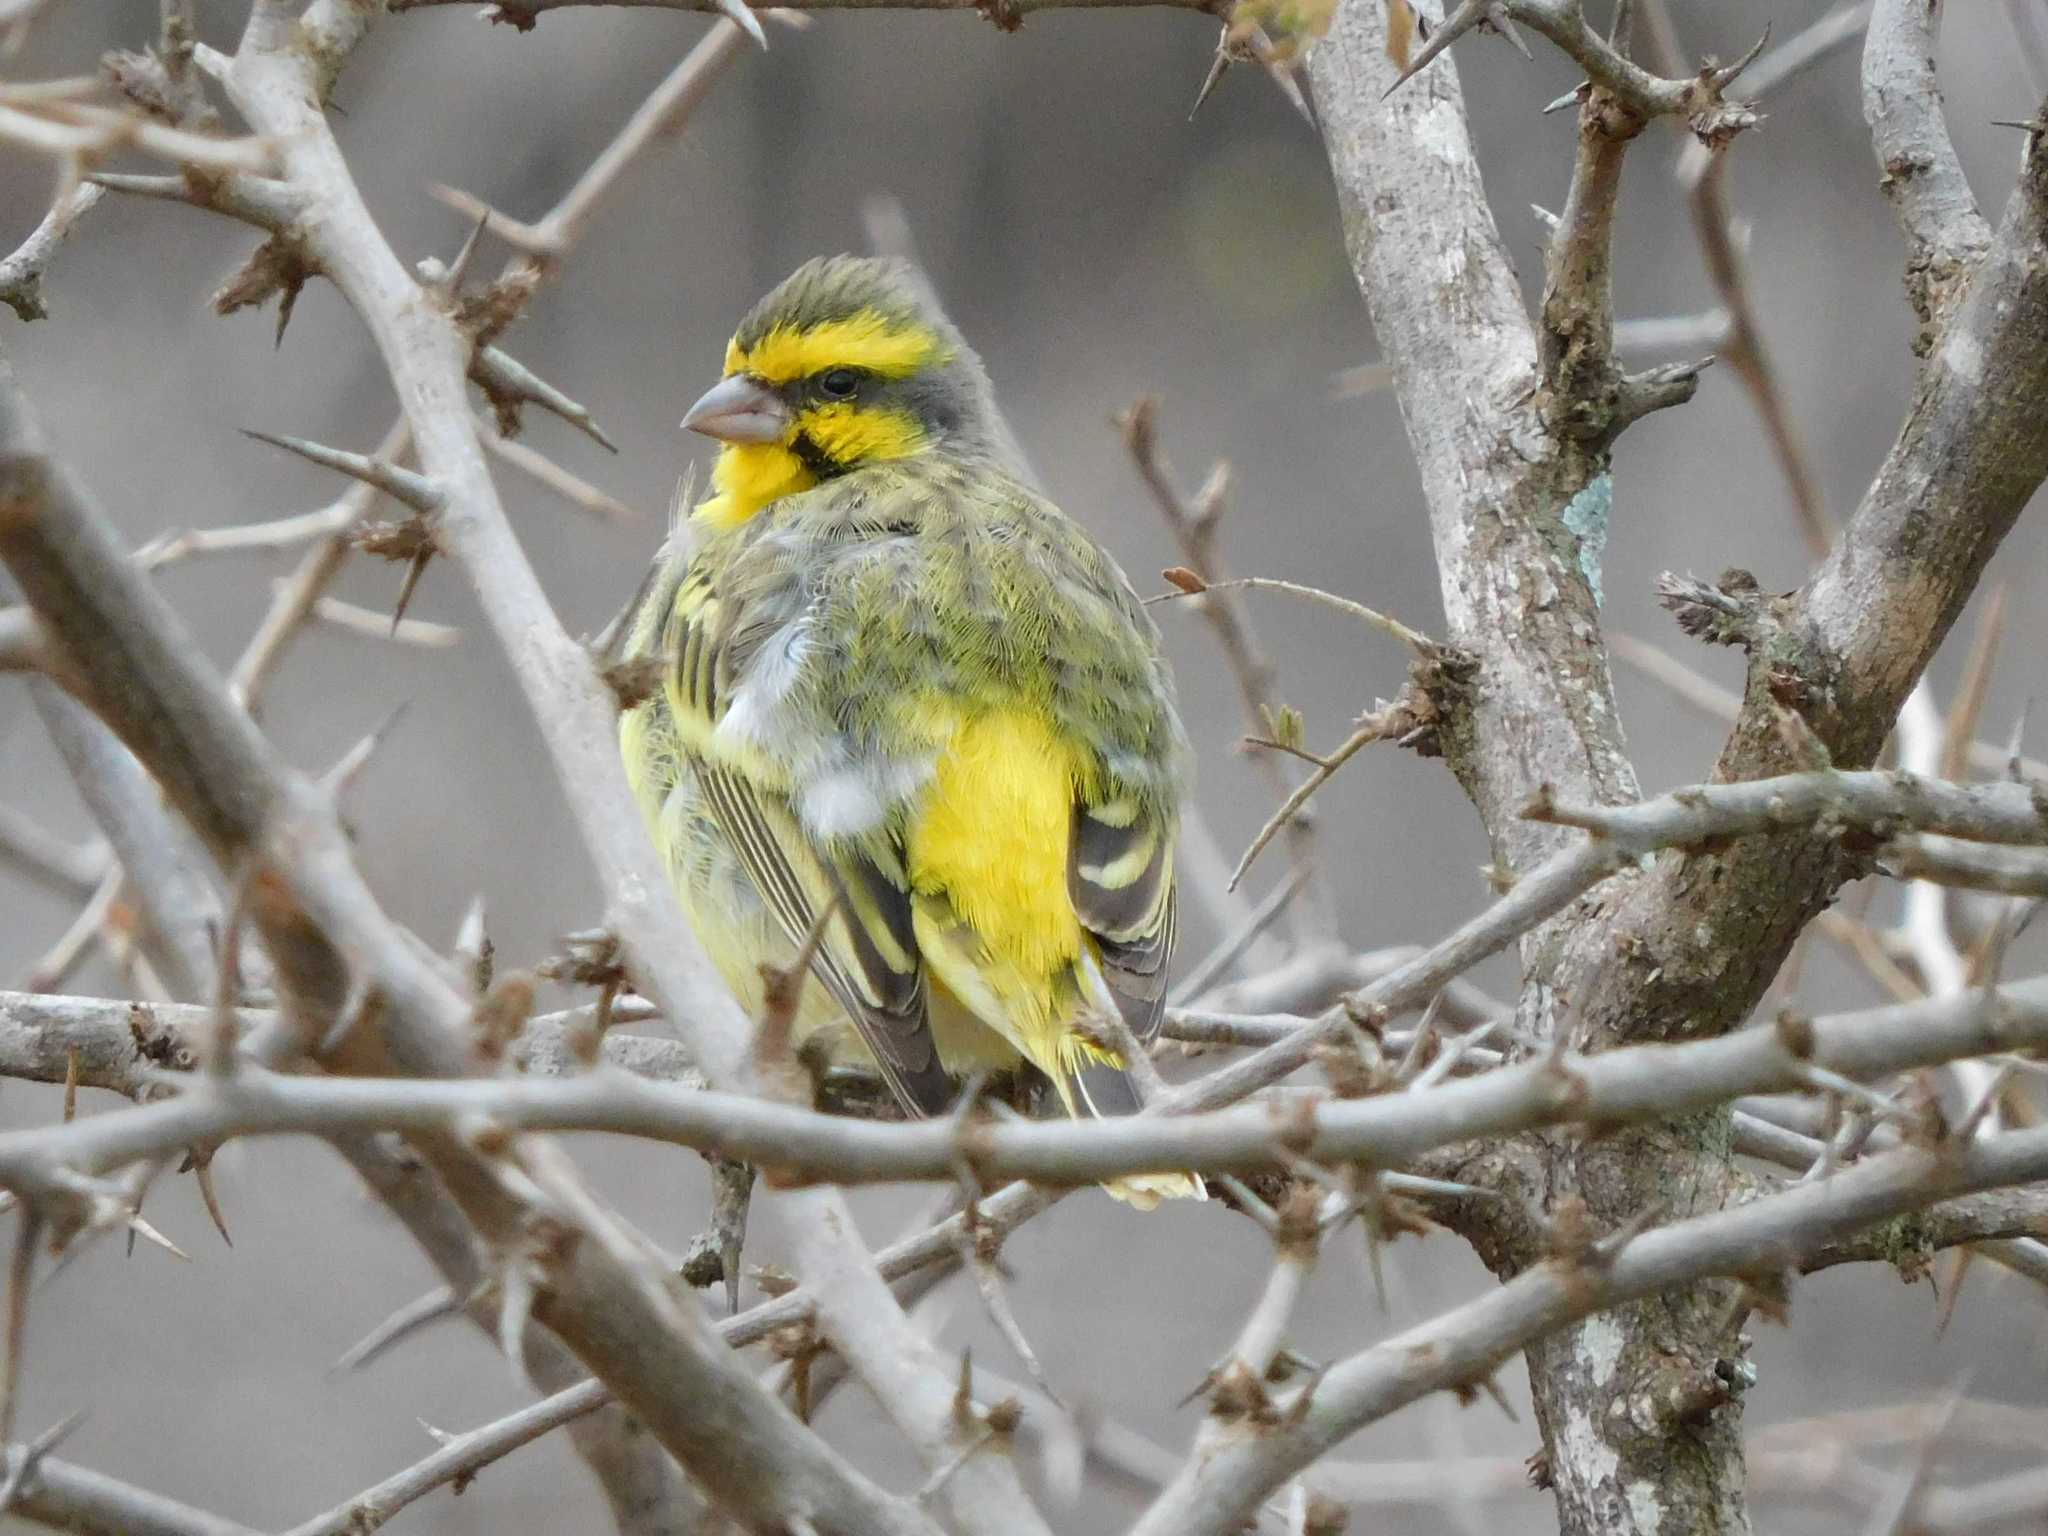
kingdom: Animalia
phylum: Chordata
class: Aves
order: Passeriformes
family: Fringillidae
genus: Crithagra
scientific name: Crithagra mozambica
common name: Yellow-fronted canary
